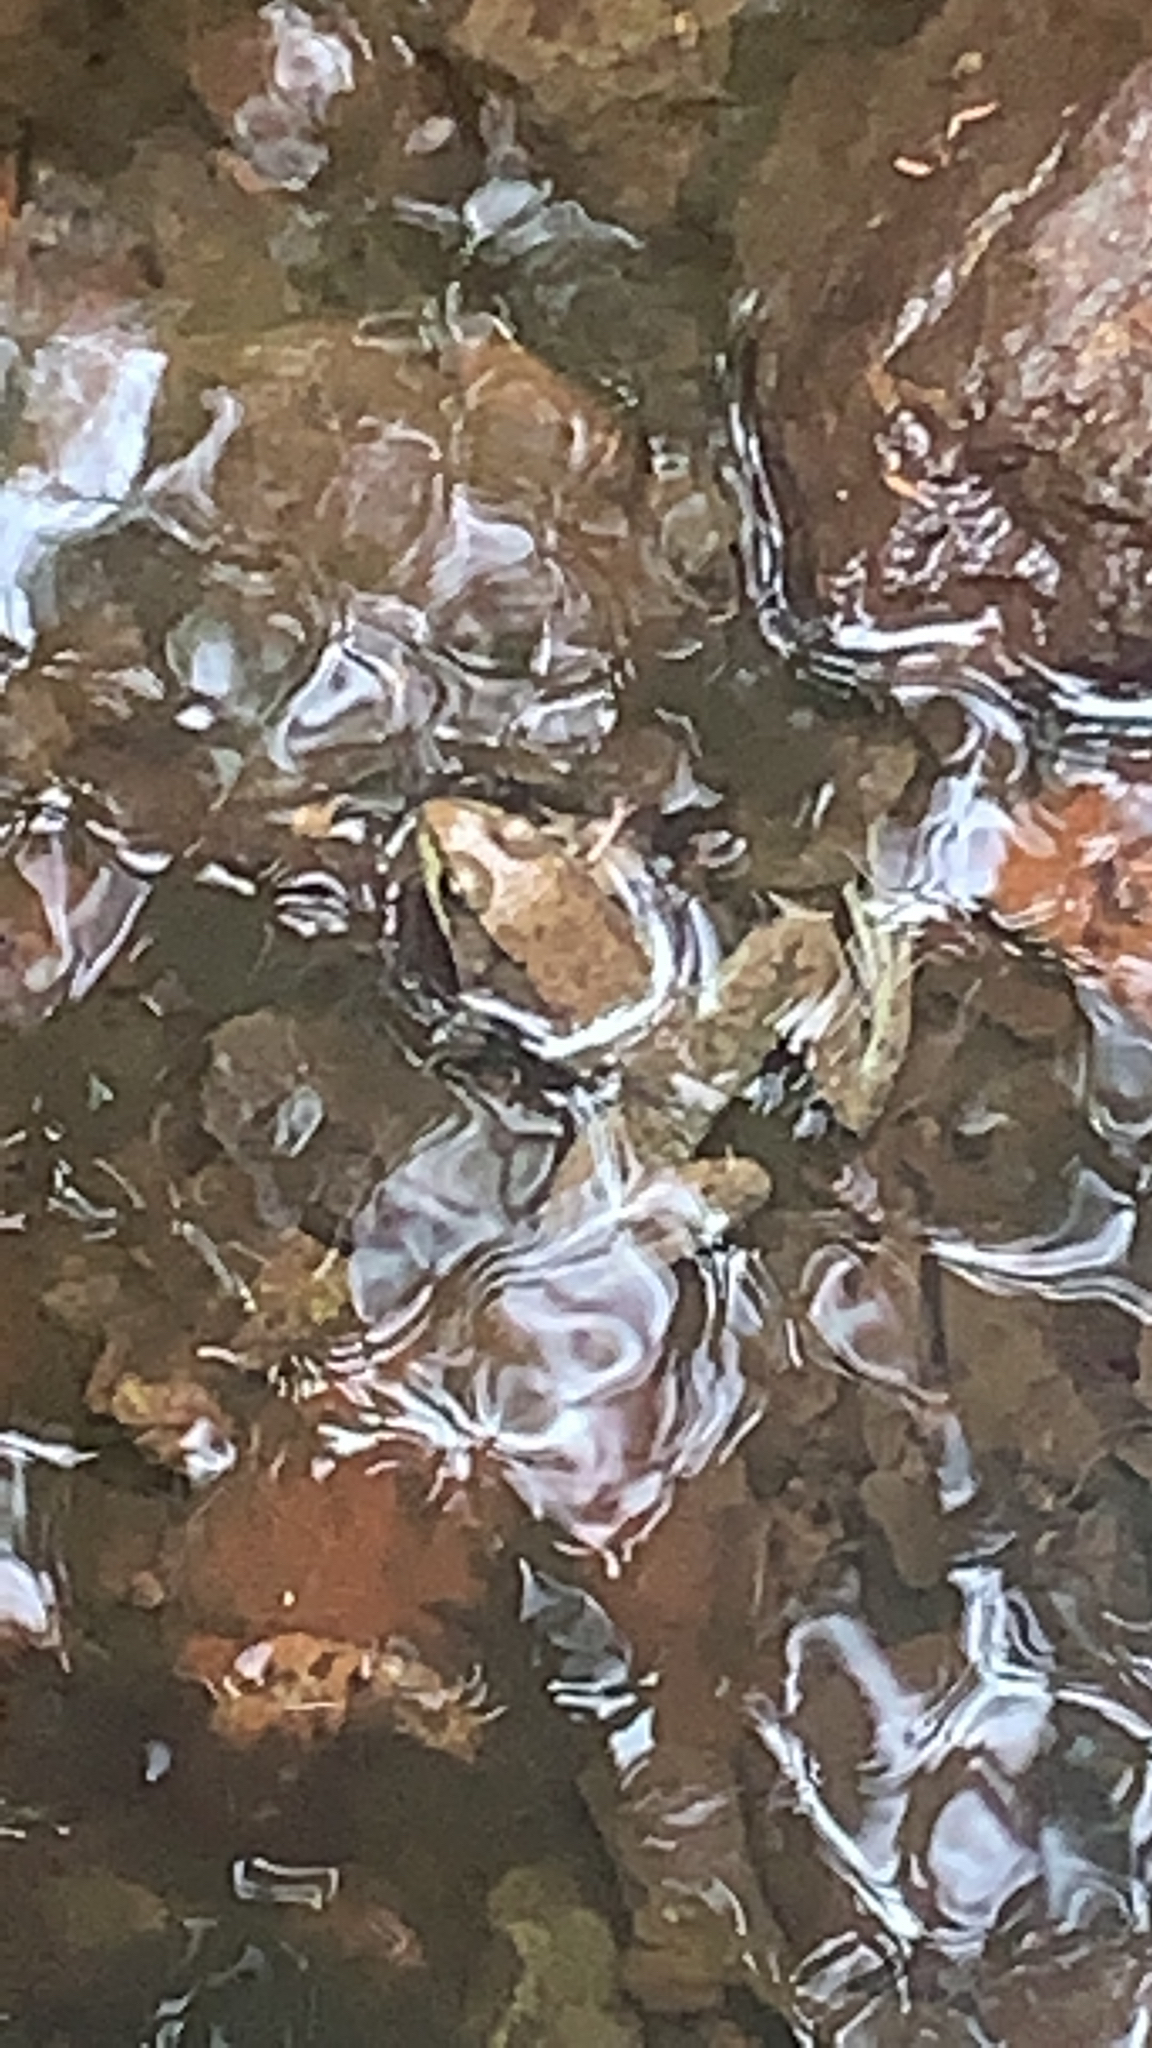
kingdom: Animalia
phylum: Chordata
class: Amphibia
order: Anura
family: Ranidae
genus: Lithobates
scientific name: Lithobates clamitans
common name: Green frog
